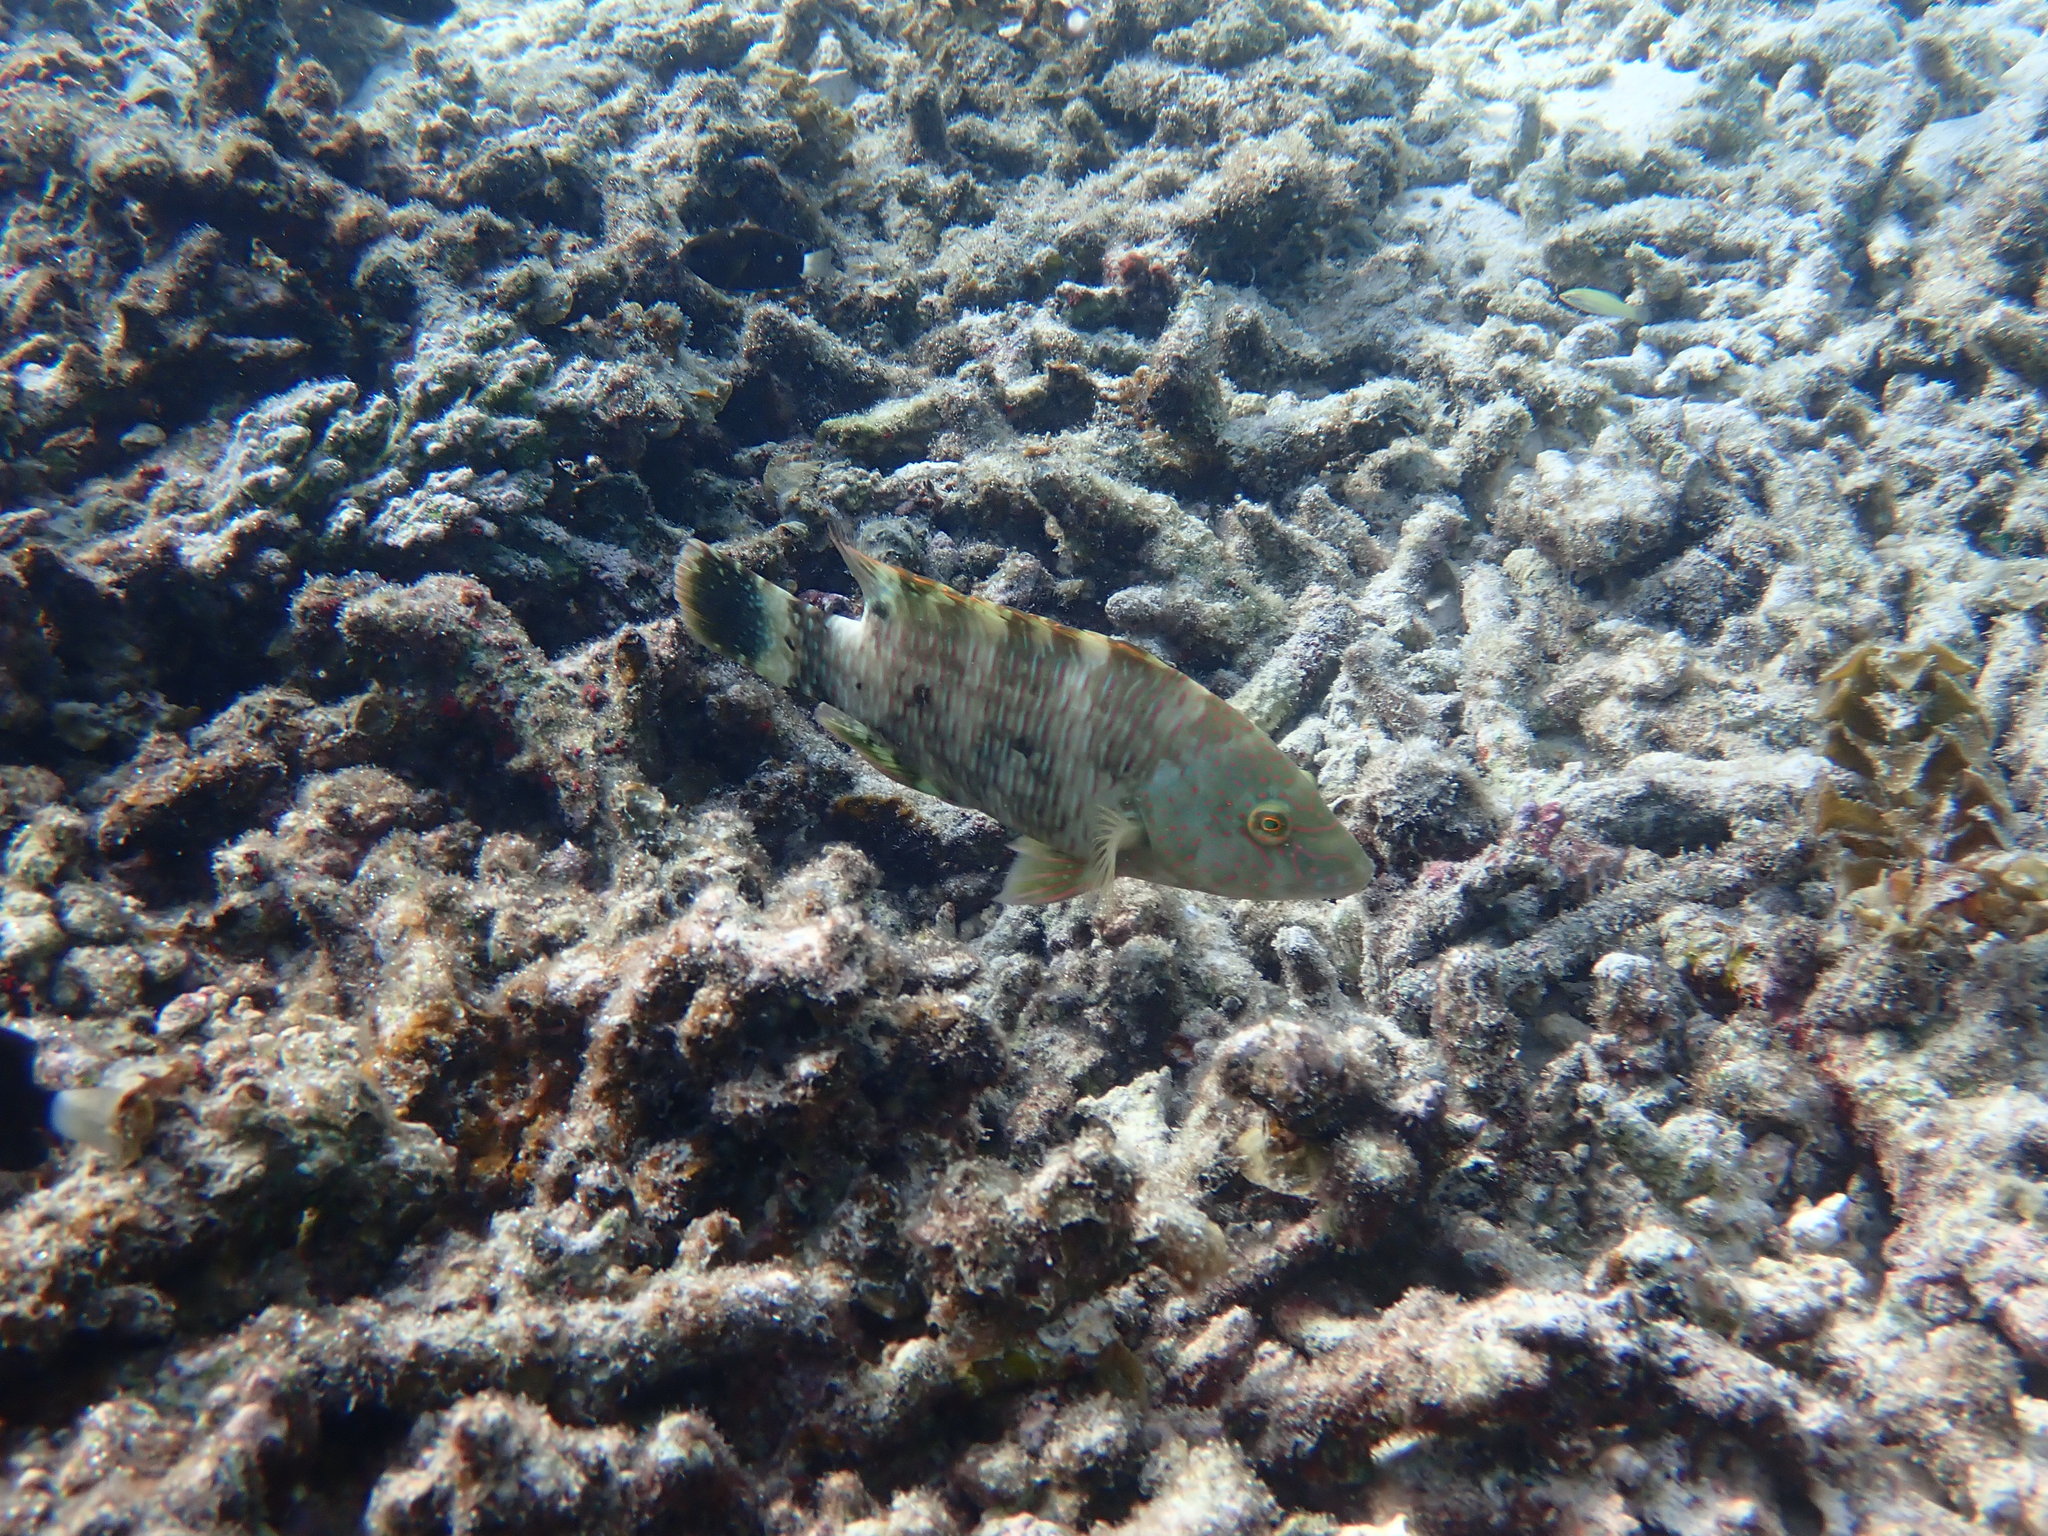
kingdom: Animalia
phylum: Chordata
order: Perciformes
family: Labridae
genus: Cheilinus
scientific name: Cheilinus trilobatus
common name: Tripletail maori wrasse
